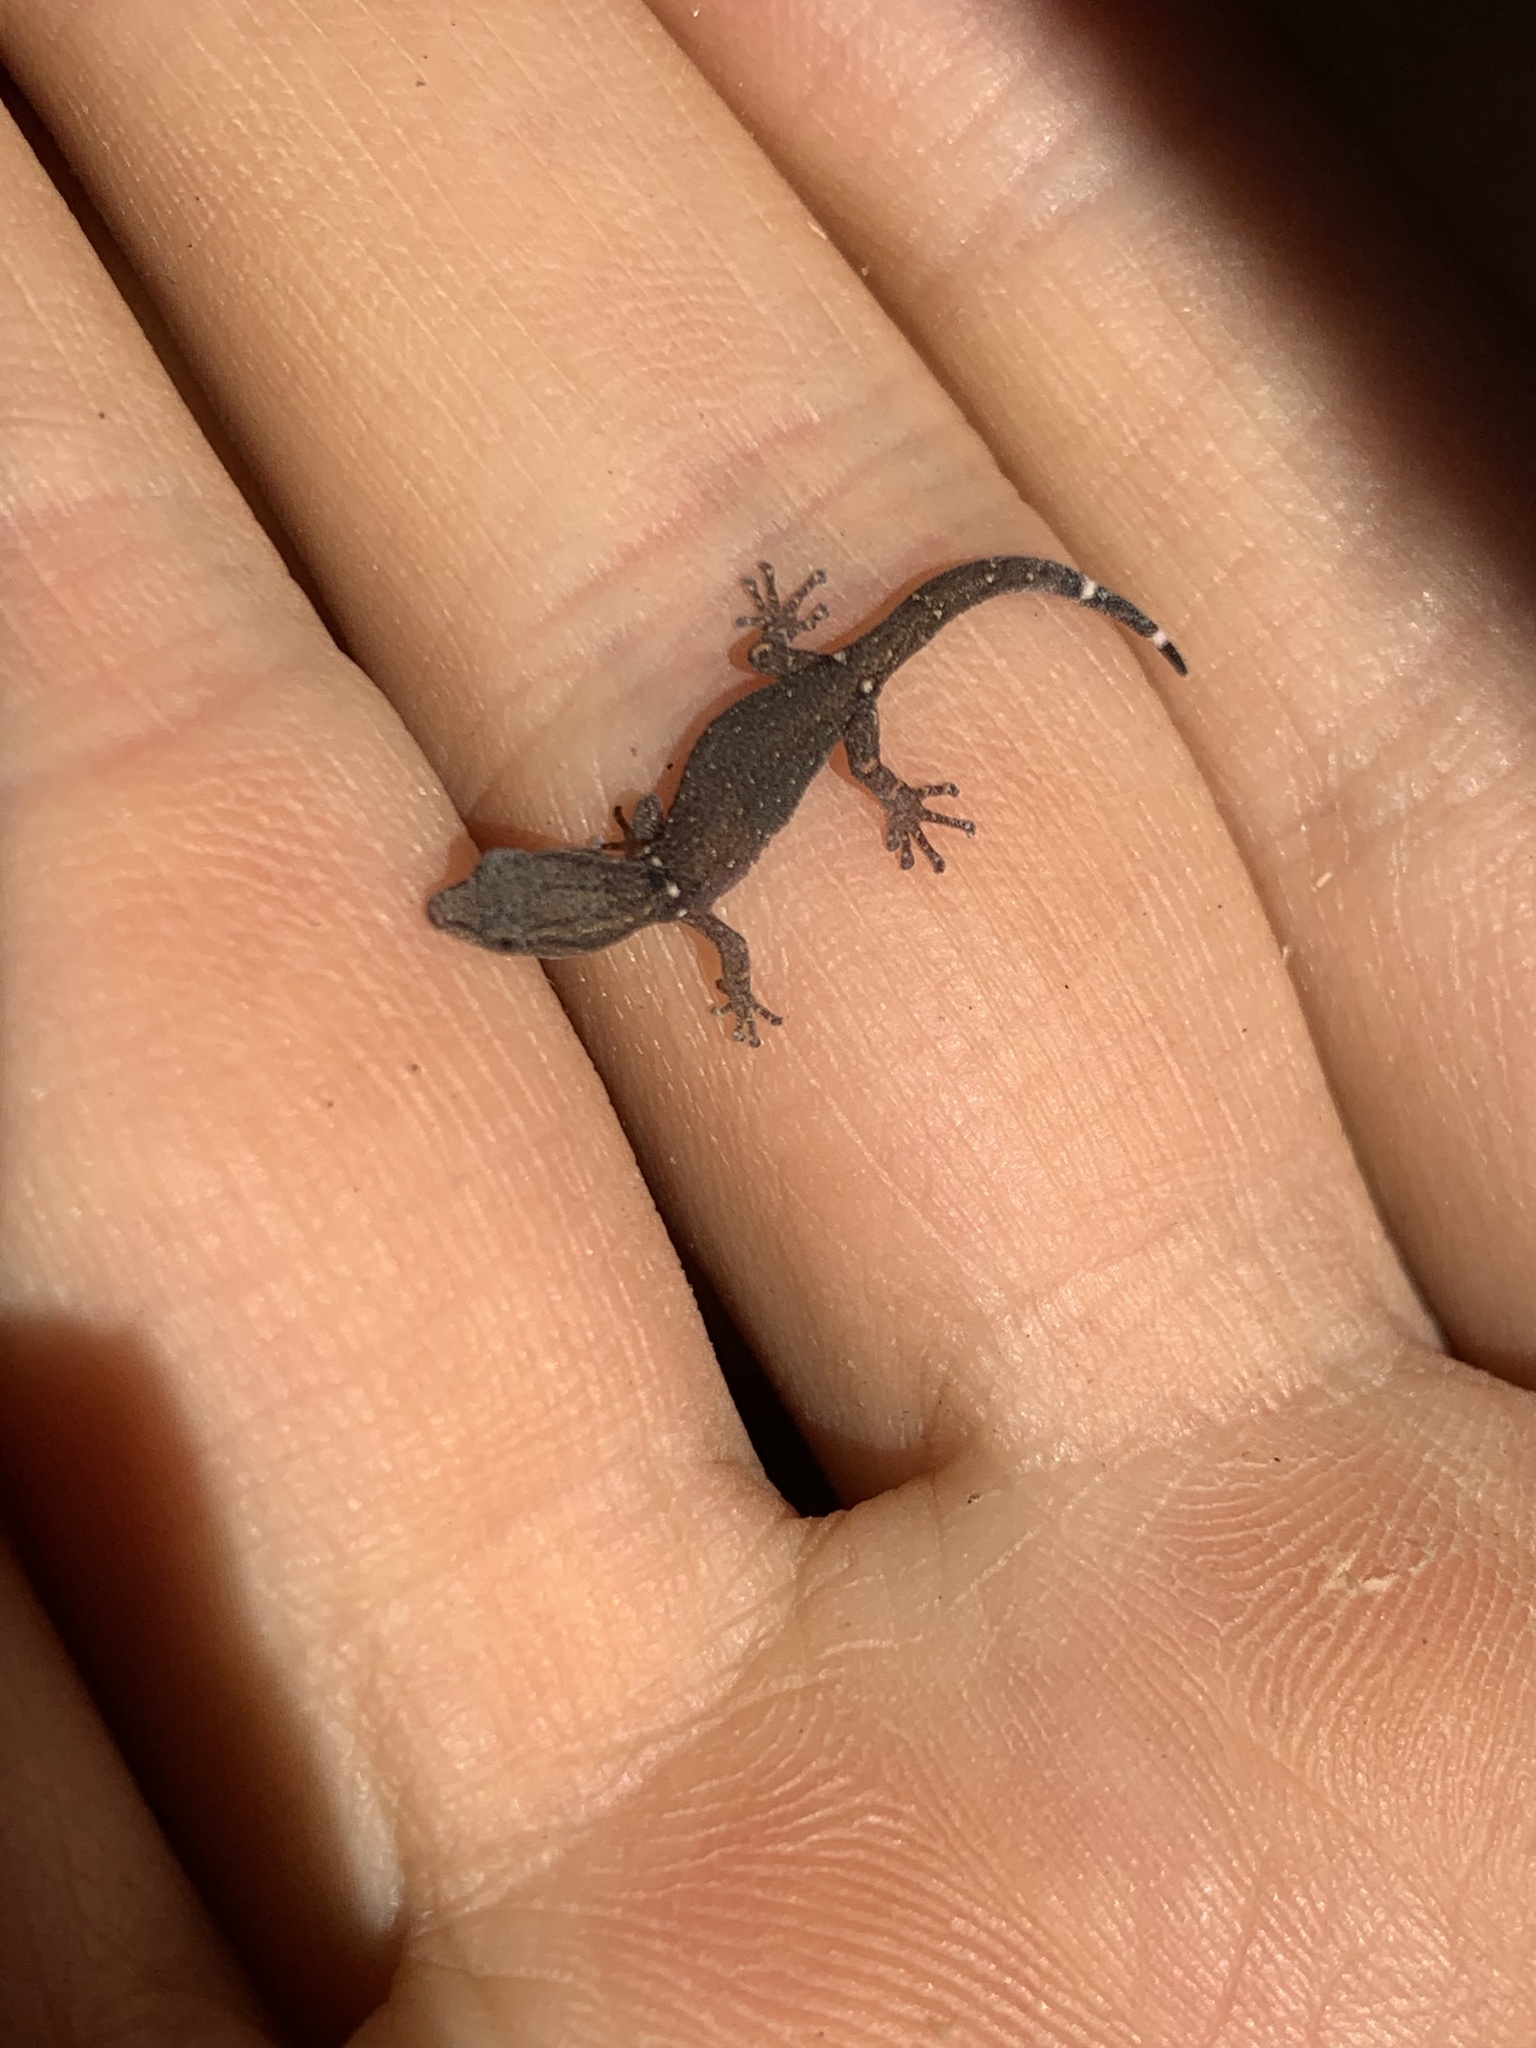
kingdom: Animalia
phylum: Chordata
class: Squamata
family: Sphaerodactylidae
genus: Sphaerodactylus
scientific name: Sphaerodactylus glaucus
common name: Central american collared geckolet
